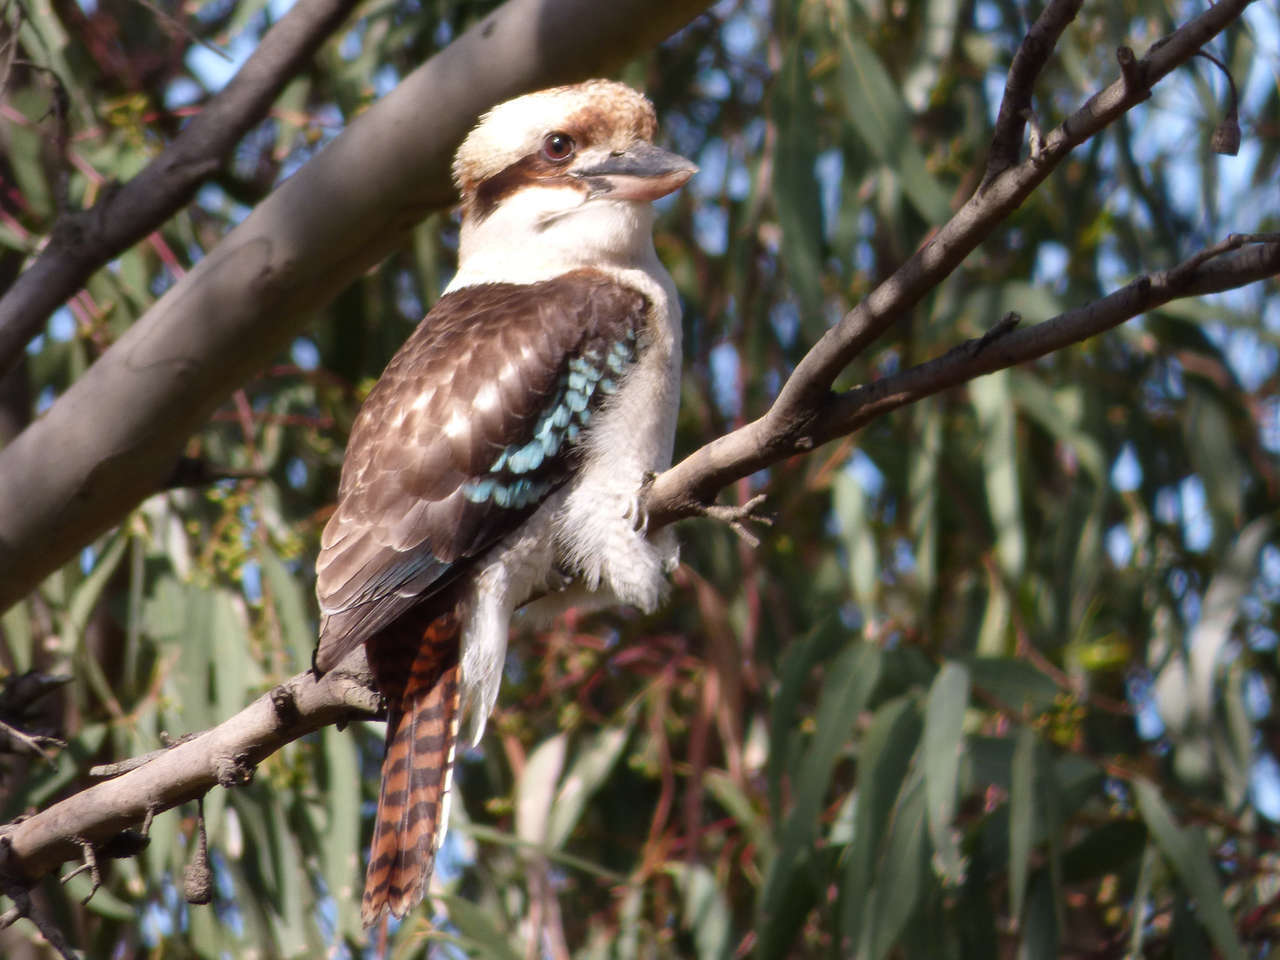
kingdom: Animalia
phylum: Chordata
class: Aves
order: Coraciiformes
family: Alcedinidae
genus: Dacelo
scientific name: Dacelo novaeguineae
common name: Laughing kookaburra
